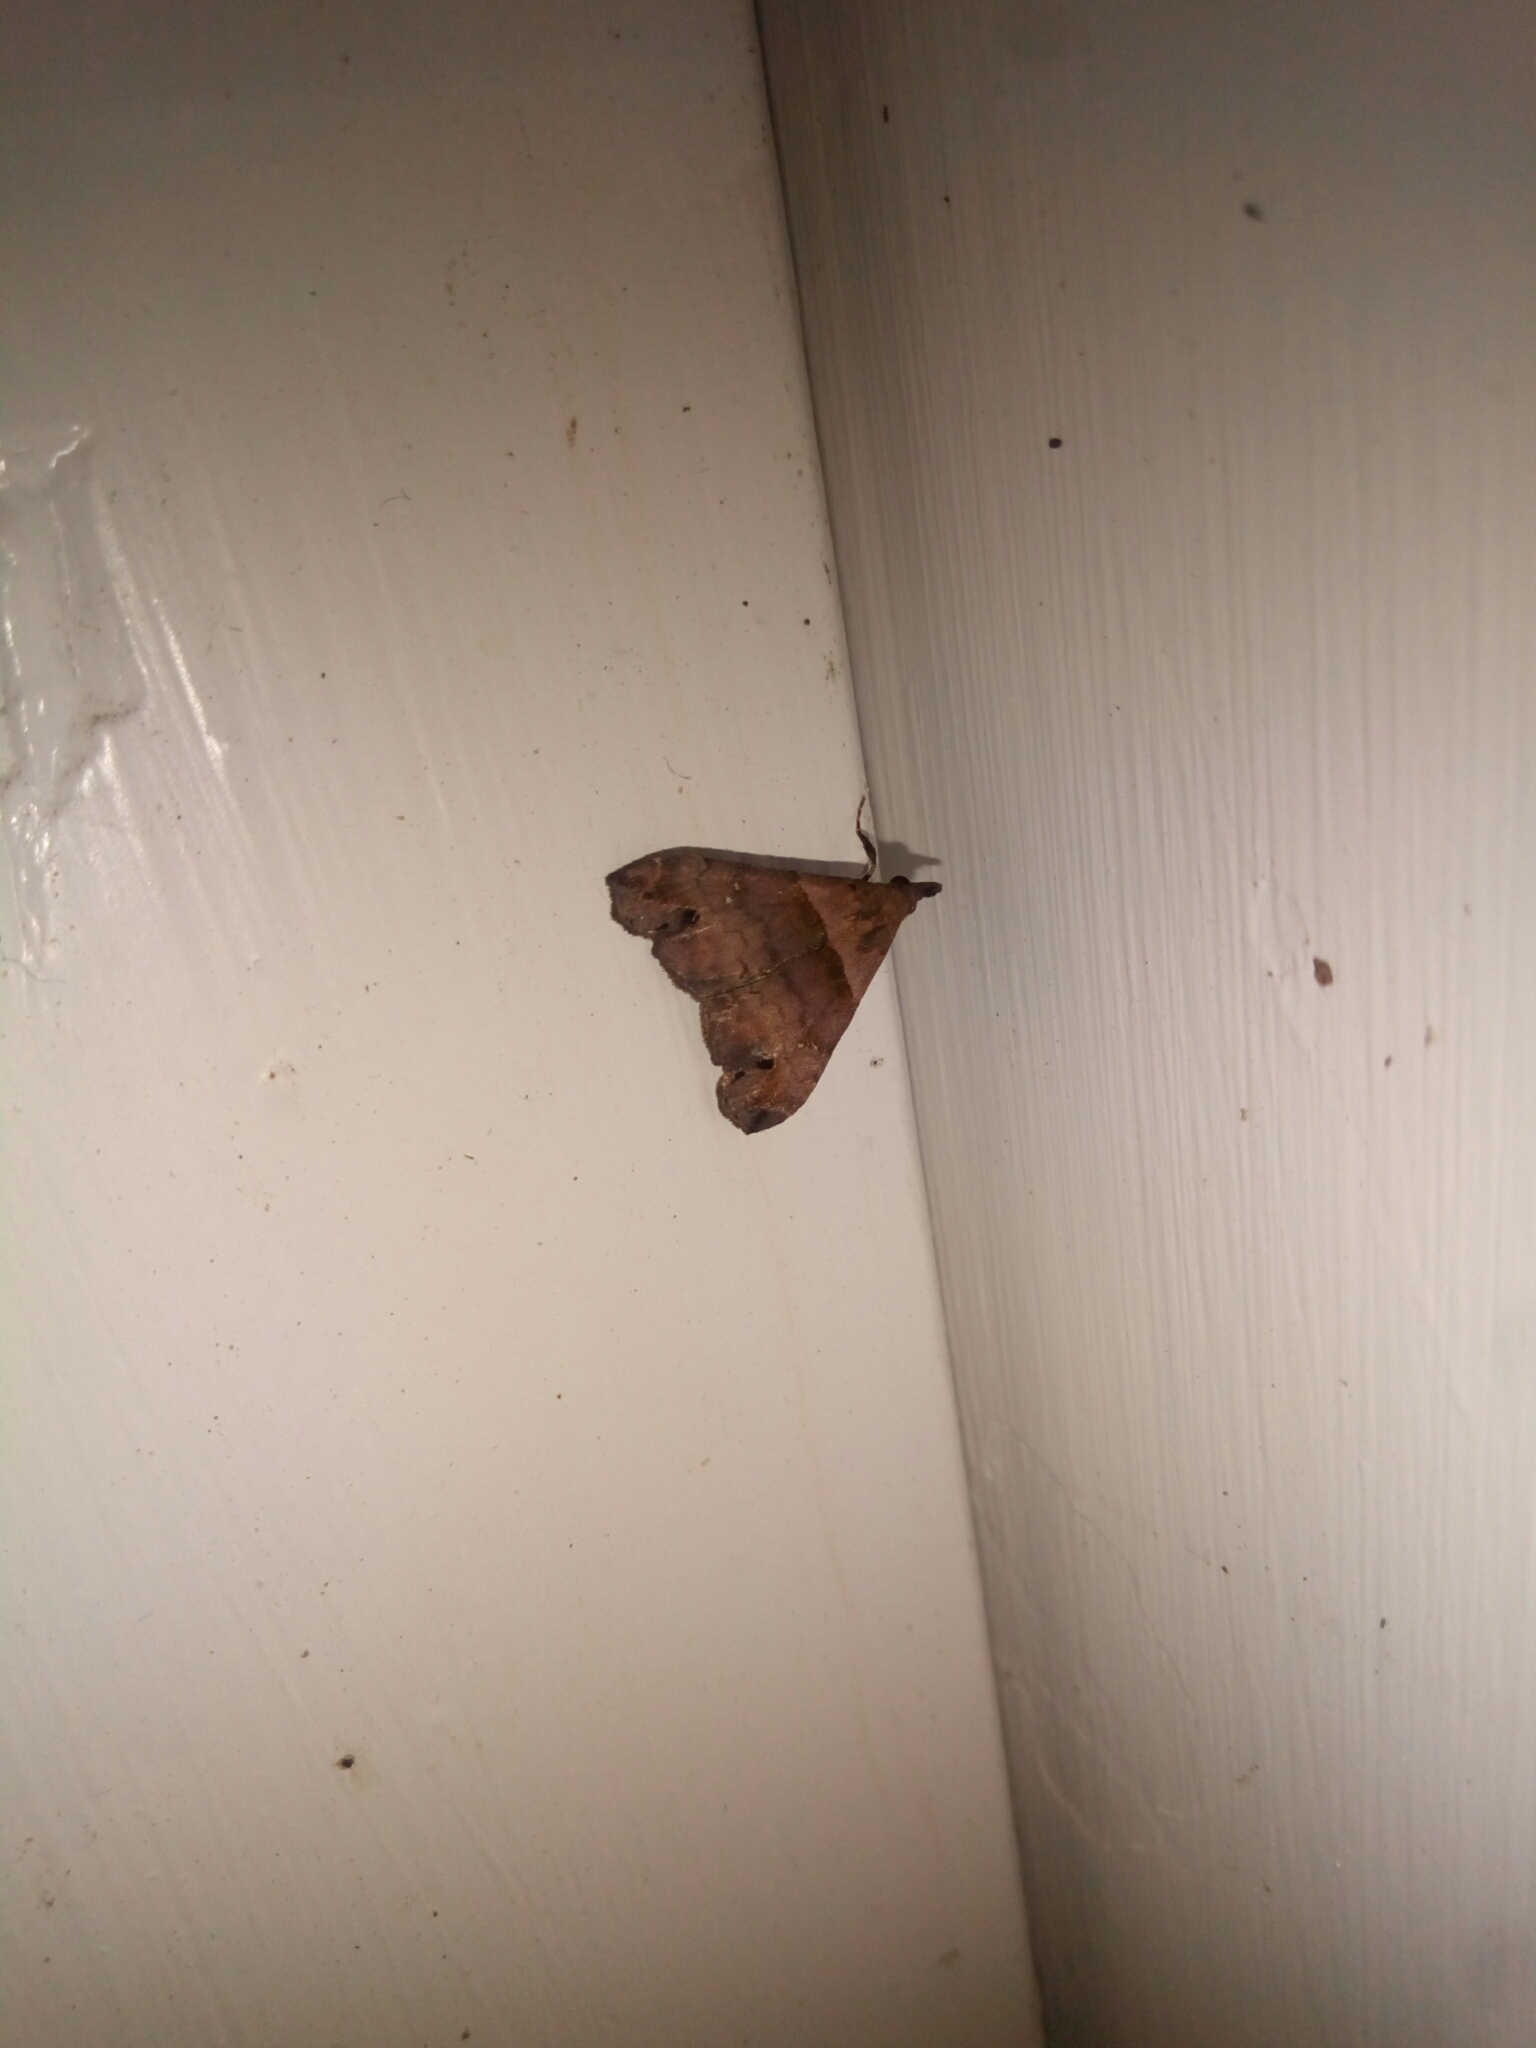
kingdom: Animalia
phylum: Arthropoda
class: Insecta
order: Lepidoptera
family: Erebidae
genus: Lascoria
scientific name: Lascoria ambigualis
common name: Ambiguous moth
